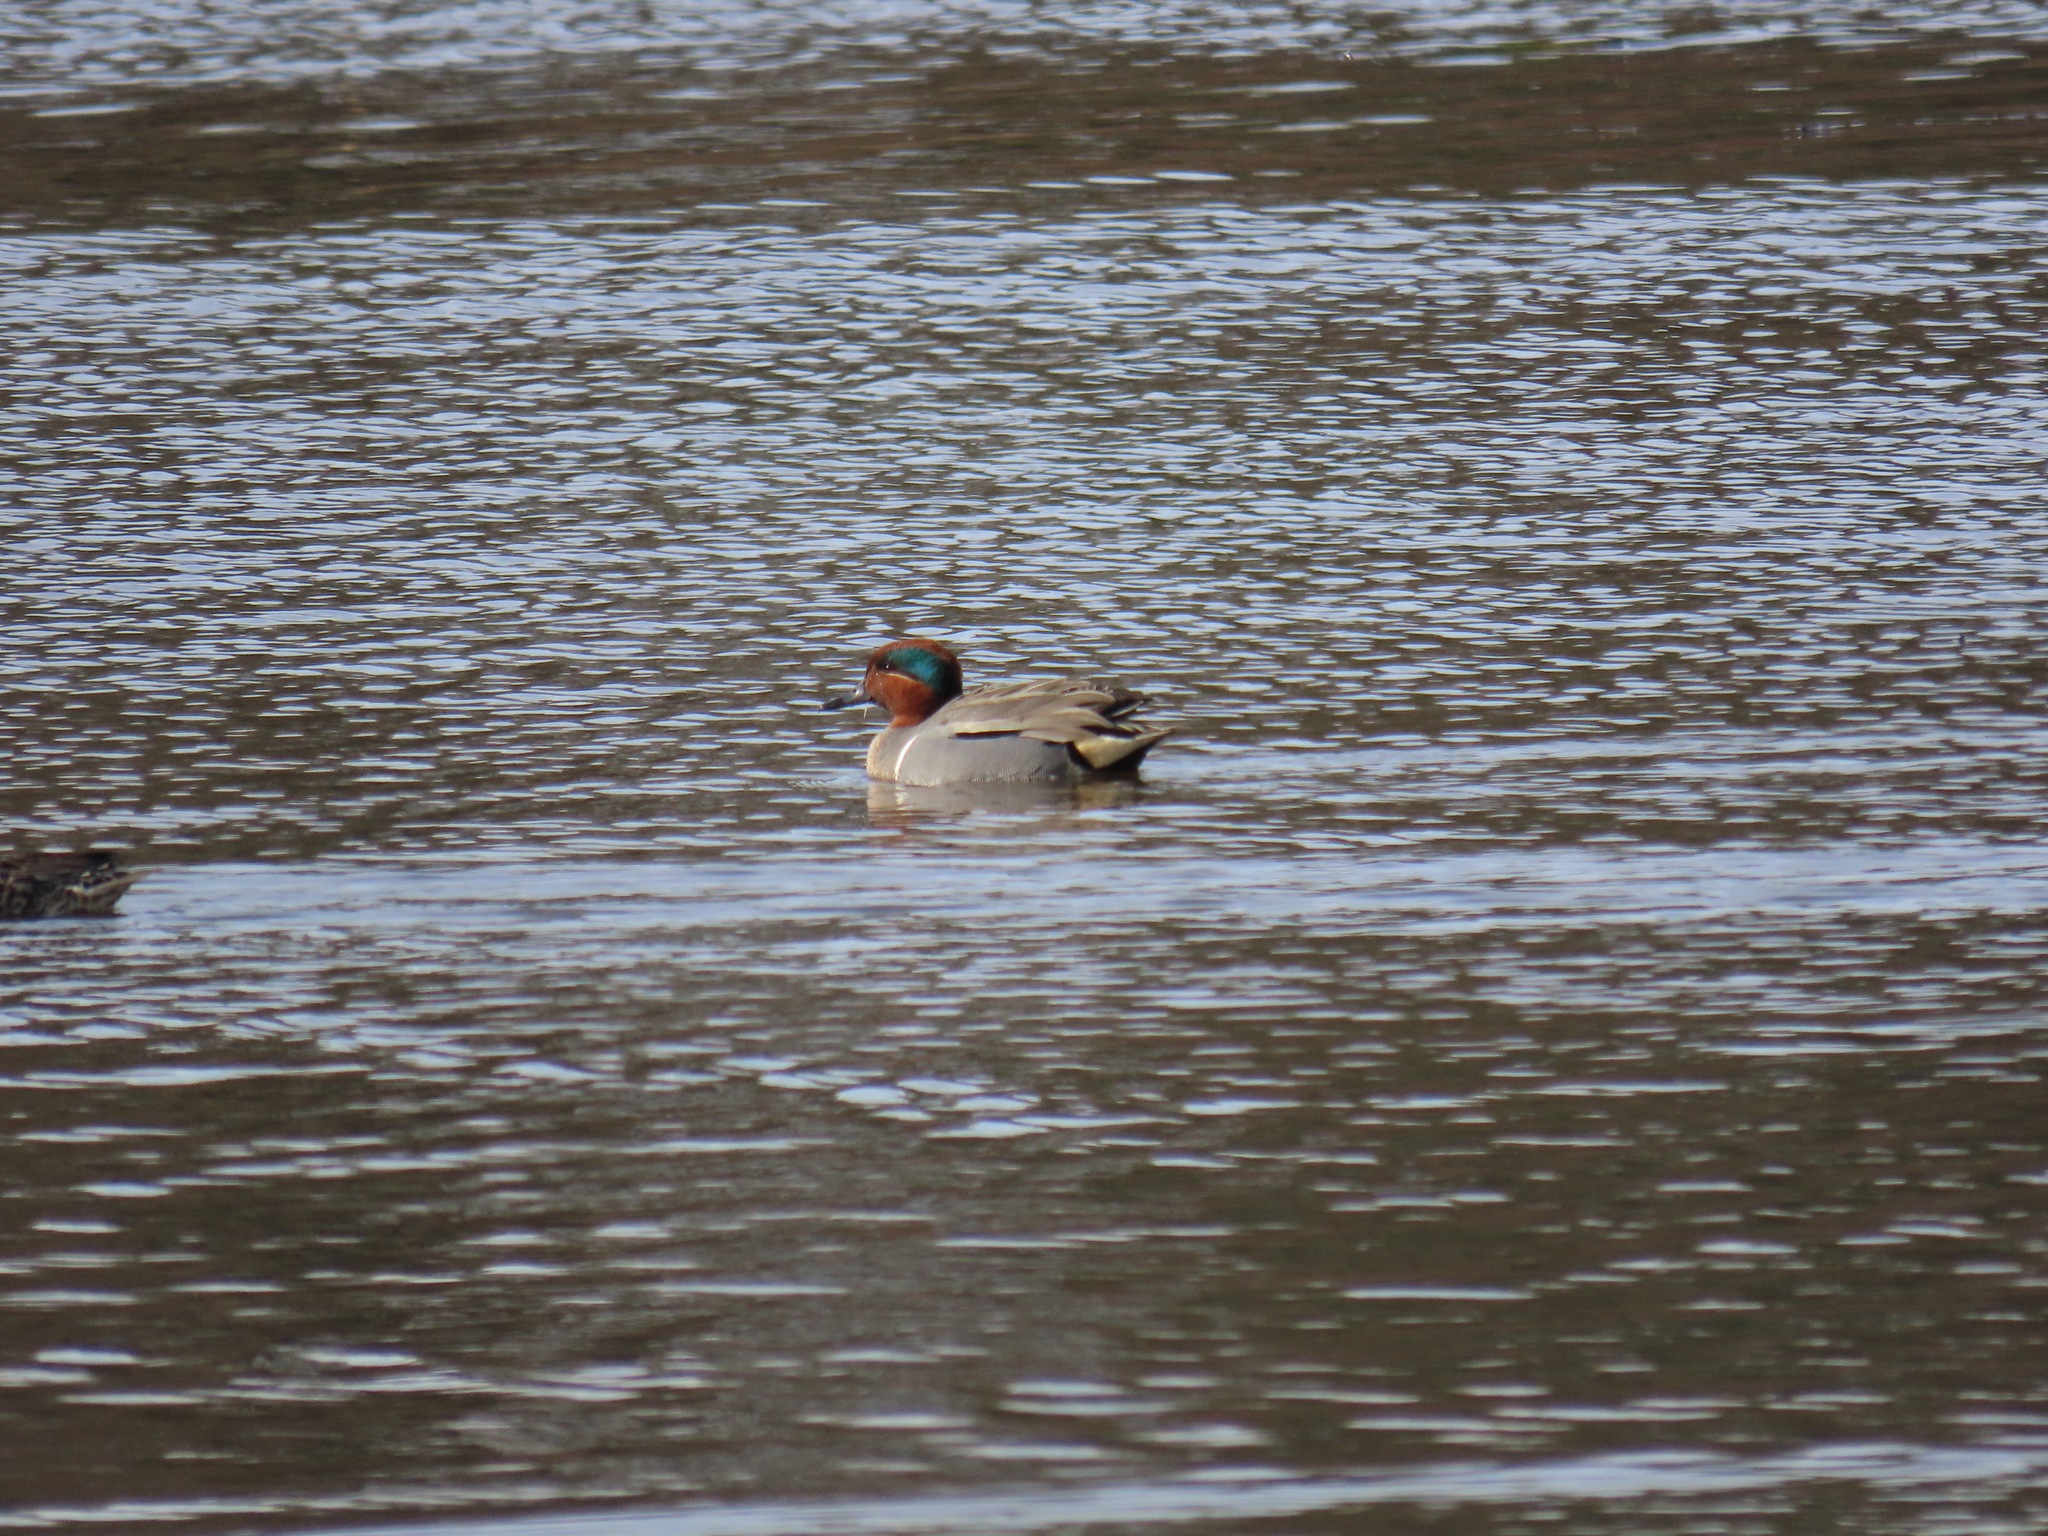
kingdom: Animalia
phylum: Chordata
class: Aves
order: Anseriformes
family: Anatidae
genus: Anas
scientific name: Anas crecca
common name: Eurasian teal
